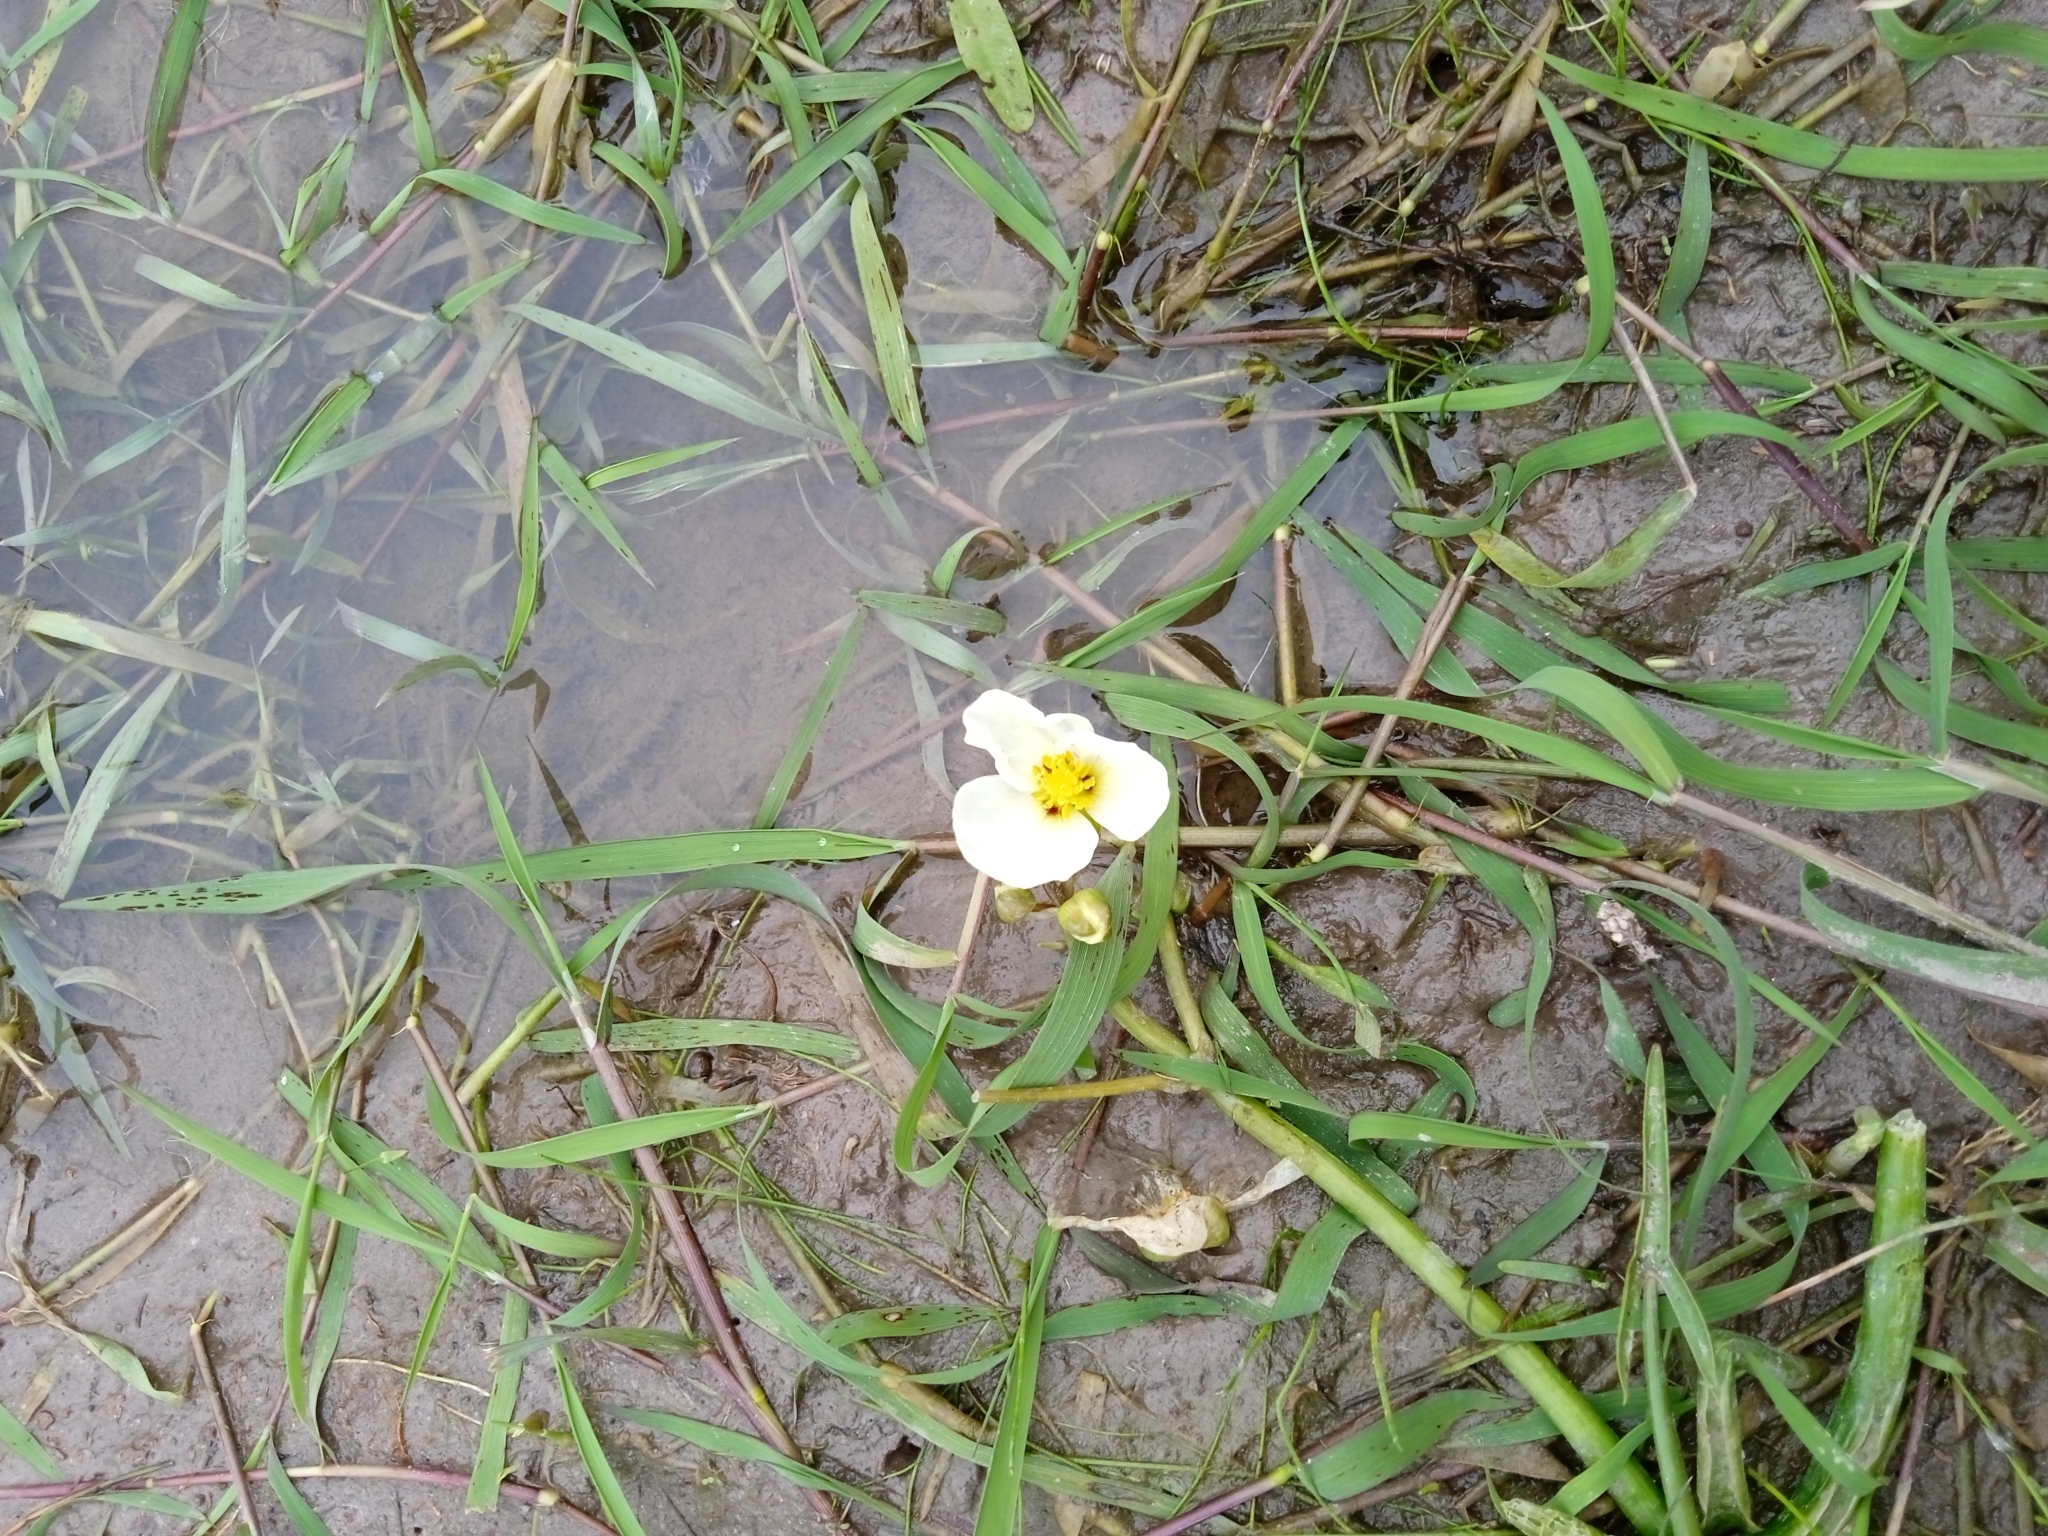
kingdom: Plantae
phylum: Tracheophyta
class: Liliopsida
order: Alismatales
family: Alismataceae
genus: Sagittaria
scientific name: Sagittaria montevidensis
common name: Giant arrowhead
